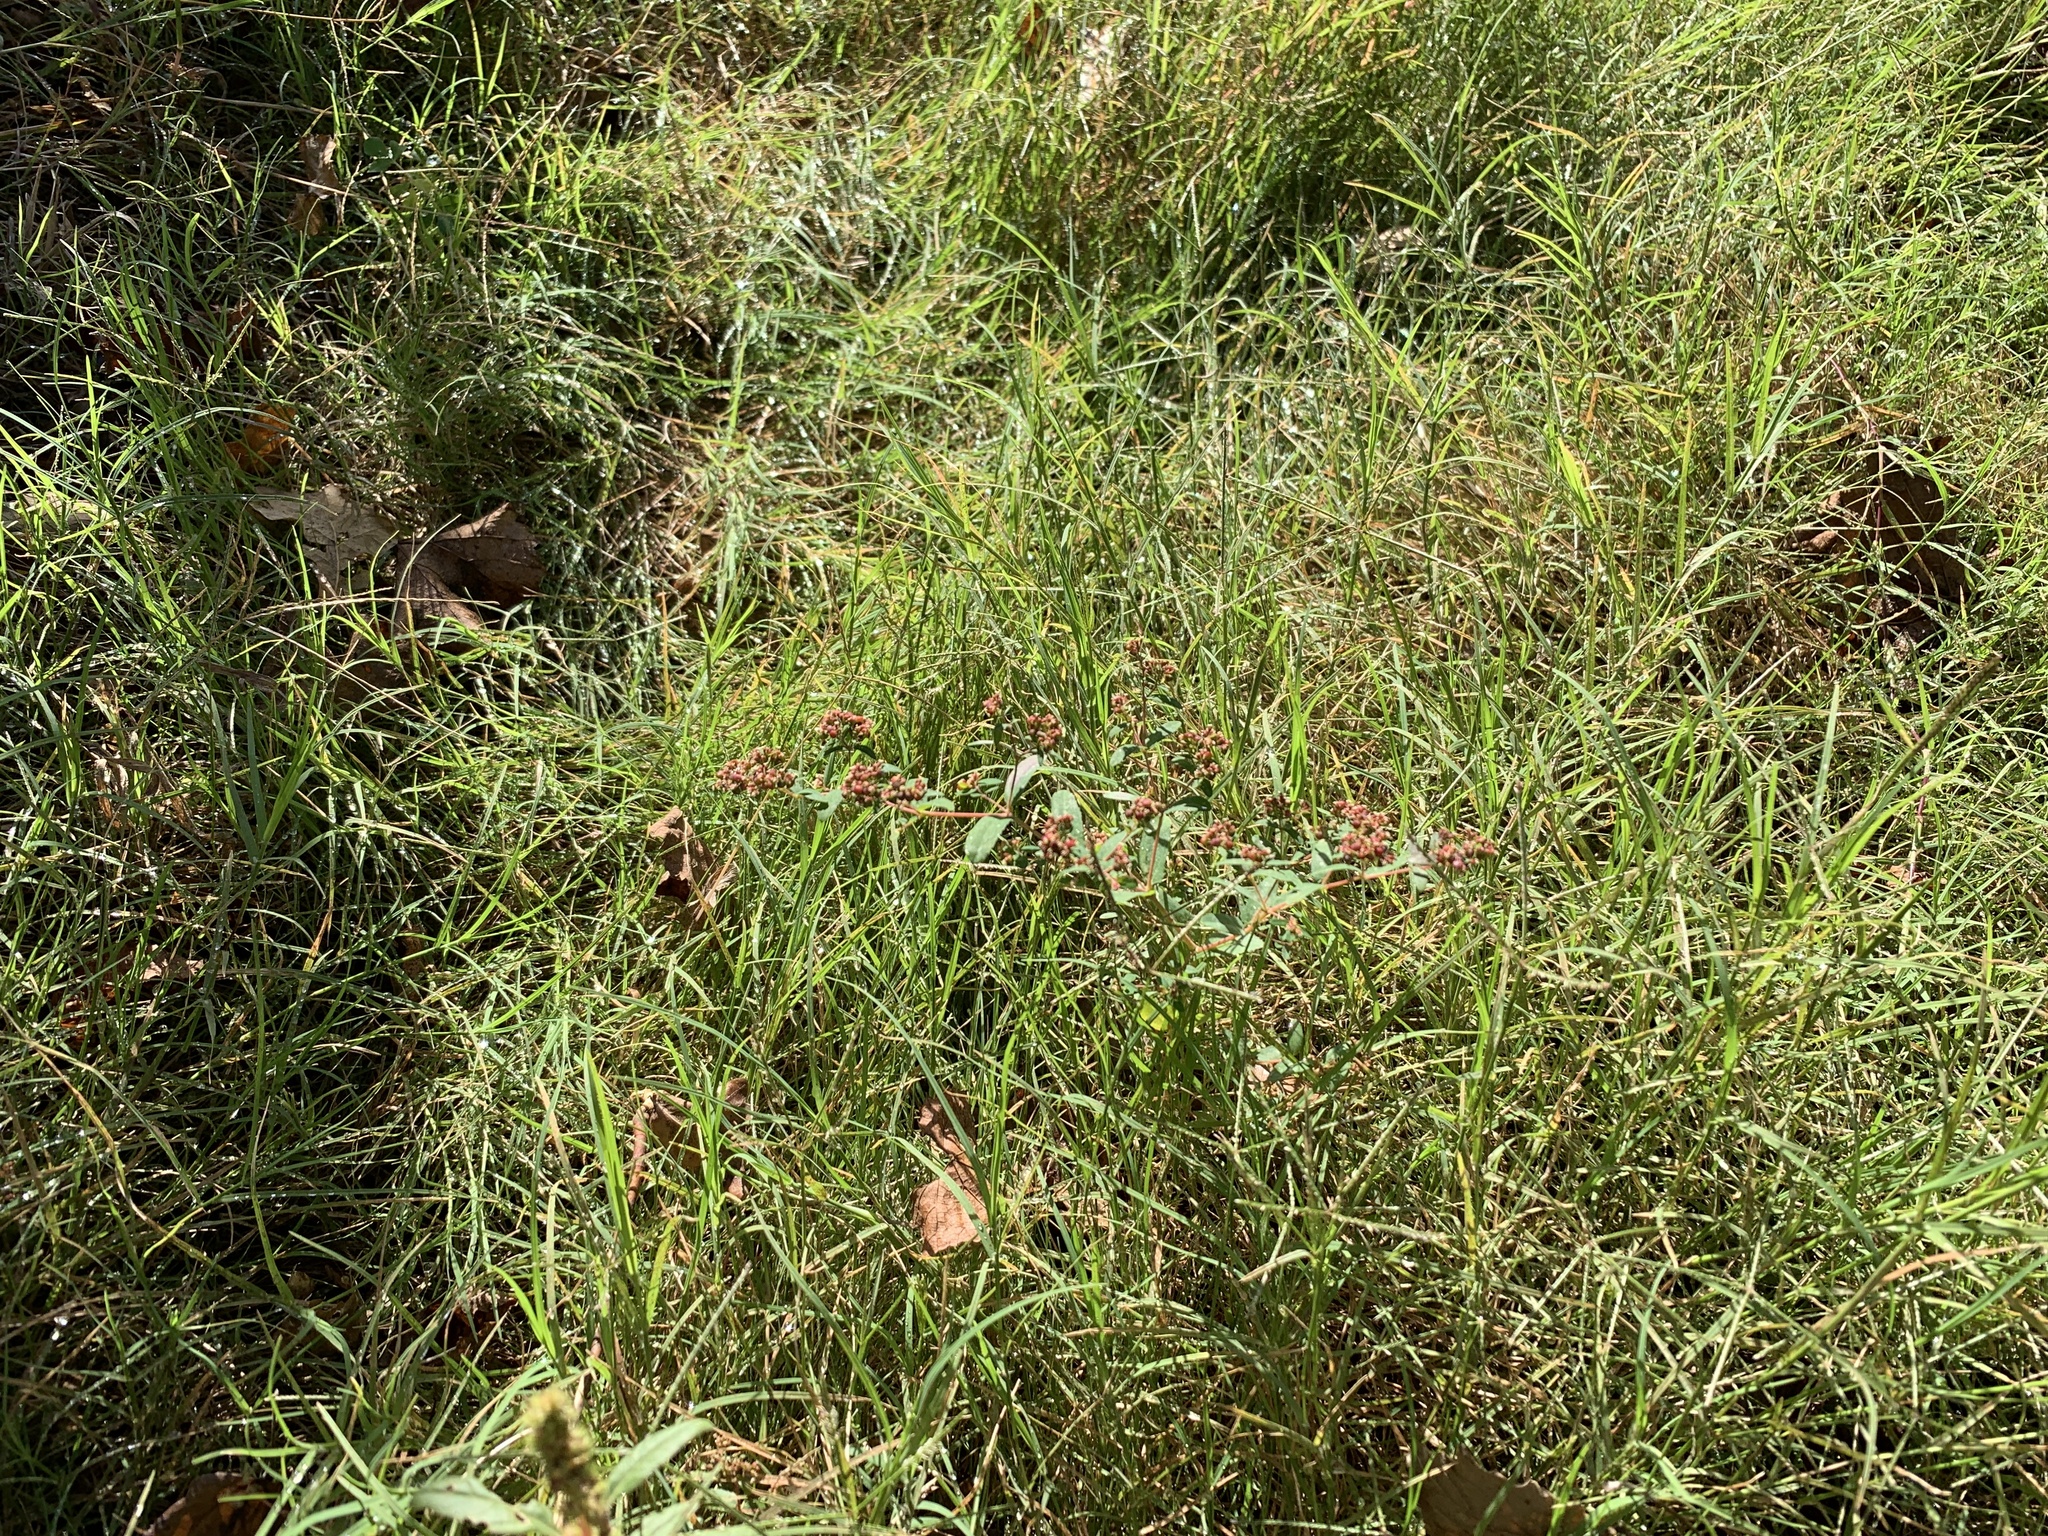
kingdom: Plantae
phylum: Tracheophyta
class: Magnoliopsida
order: Malpighiales
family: Euphorbiaceae
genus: Euphorbia
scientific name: Euphorbia nutans
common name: Eyebane
